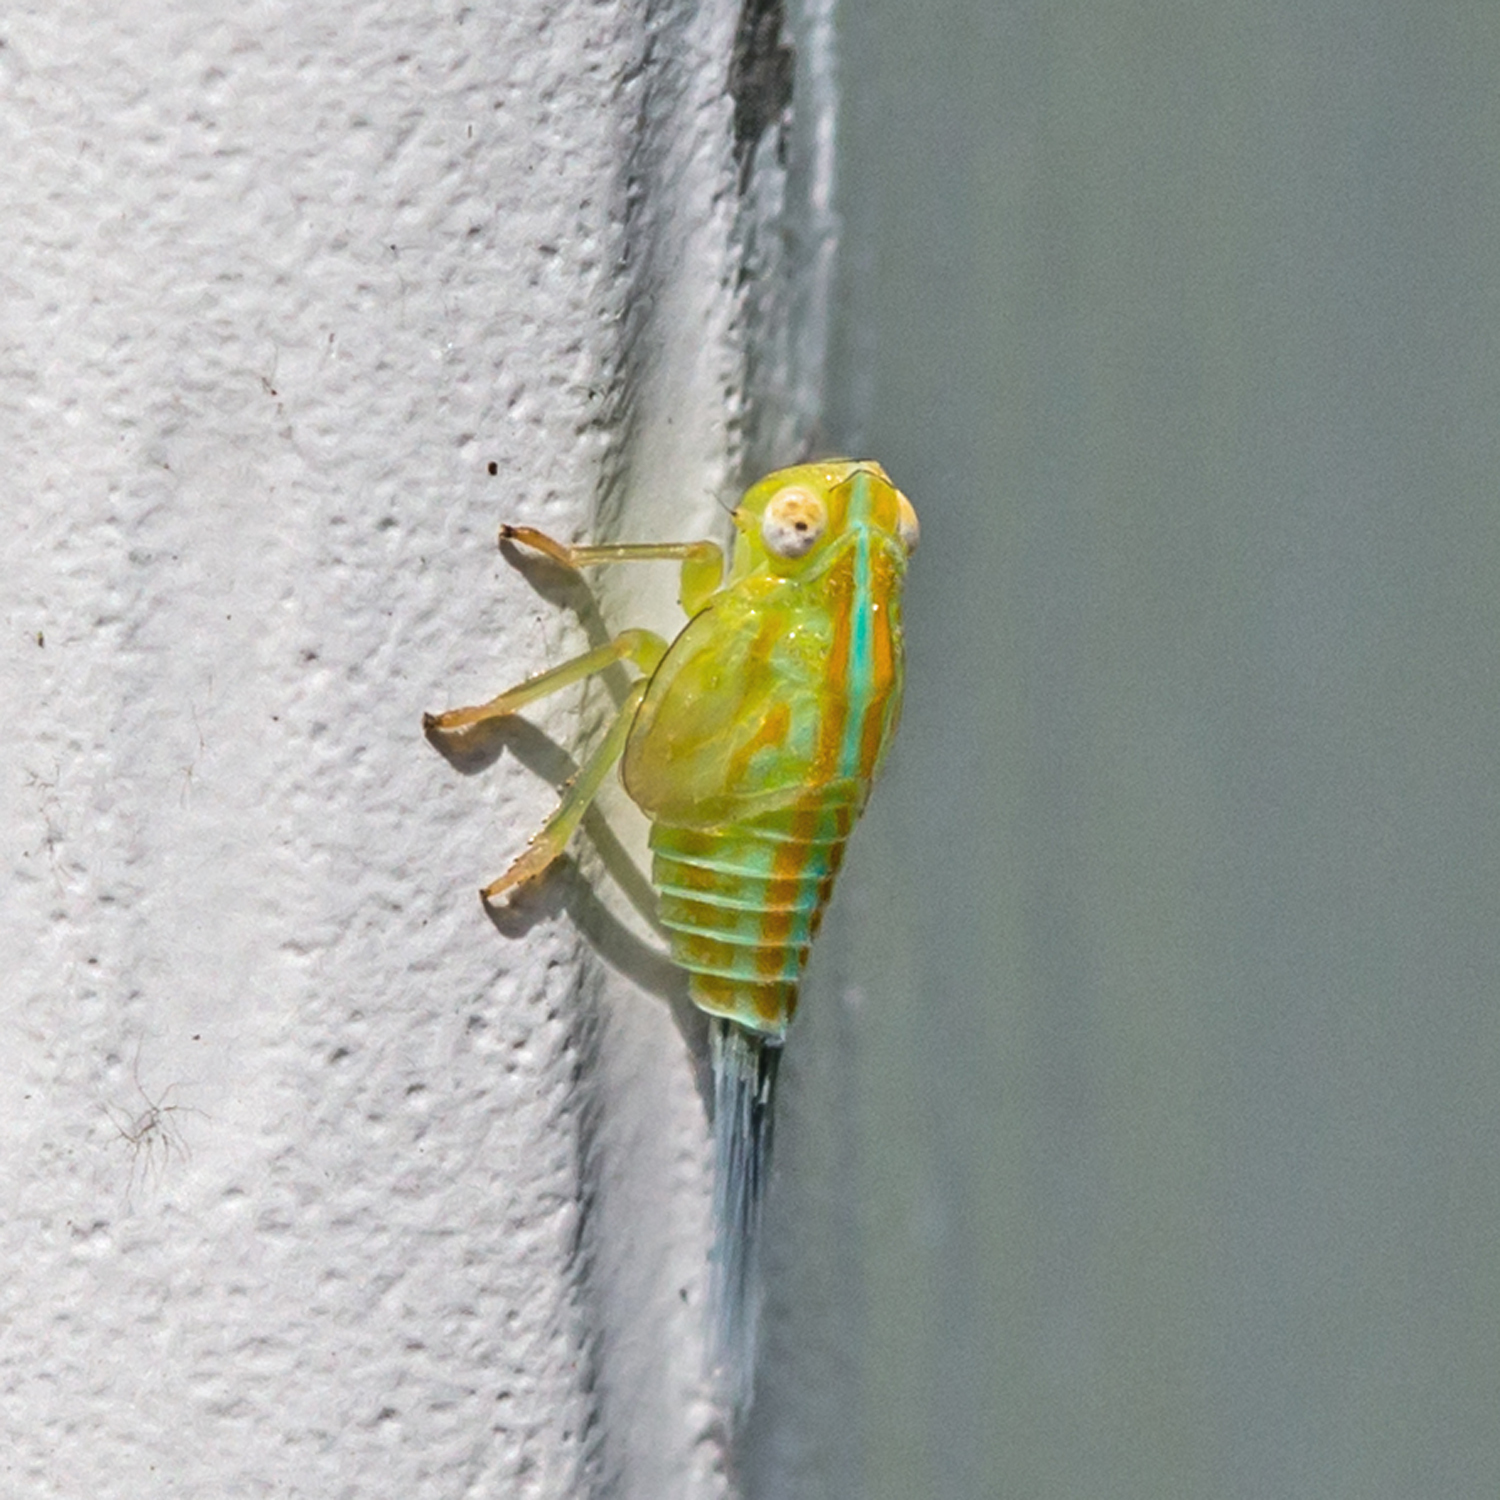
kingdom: Animalia
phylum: Arthropoda
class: Insecta
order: Hemiptera
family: Issidae
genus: Aplos
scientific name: Aplos simplex
